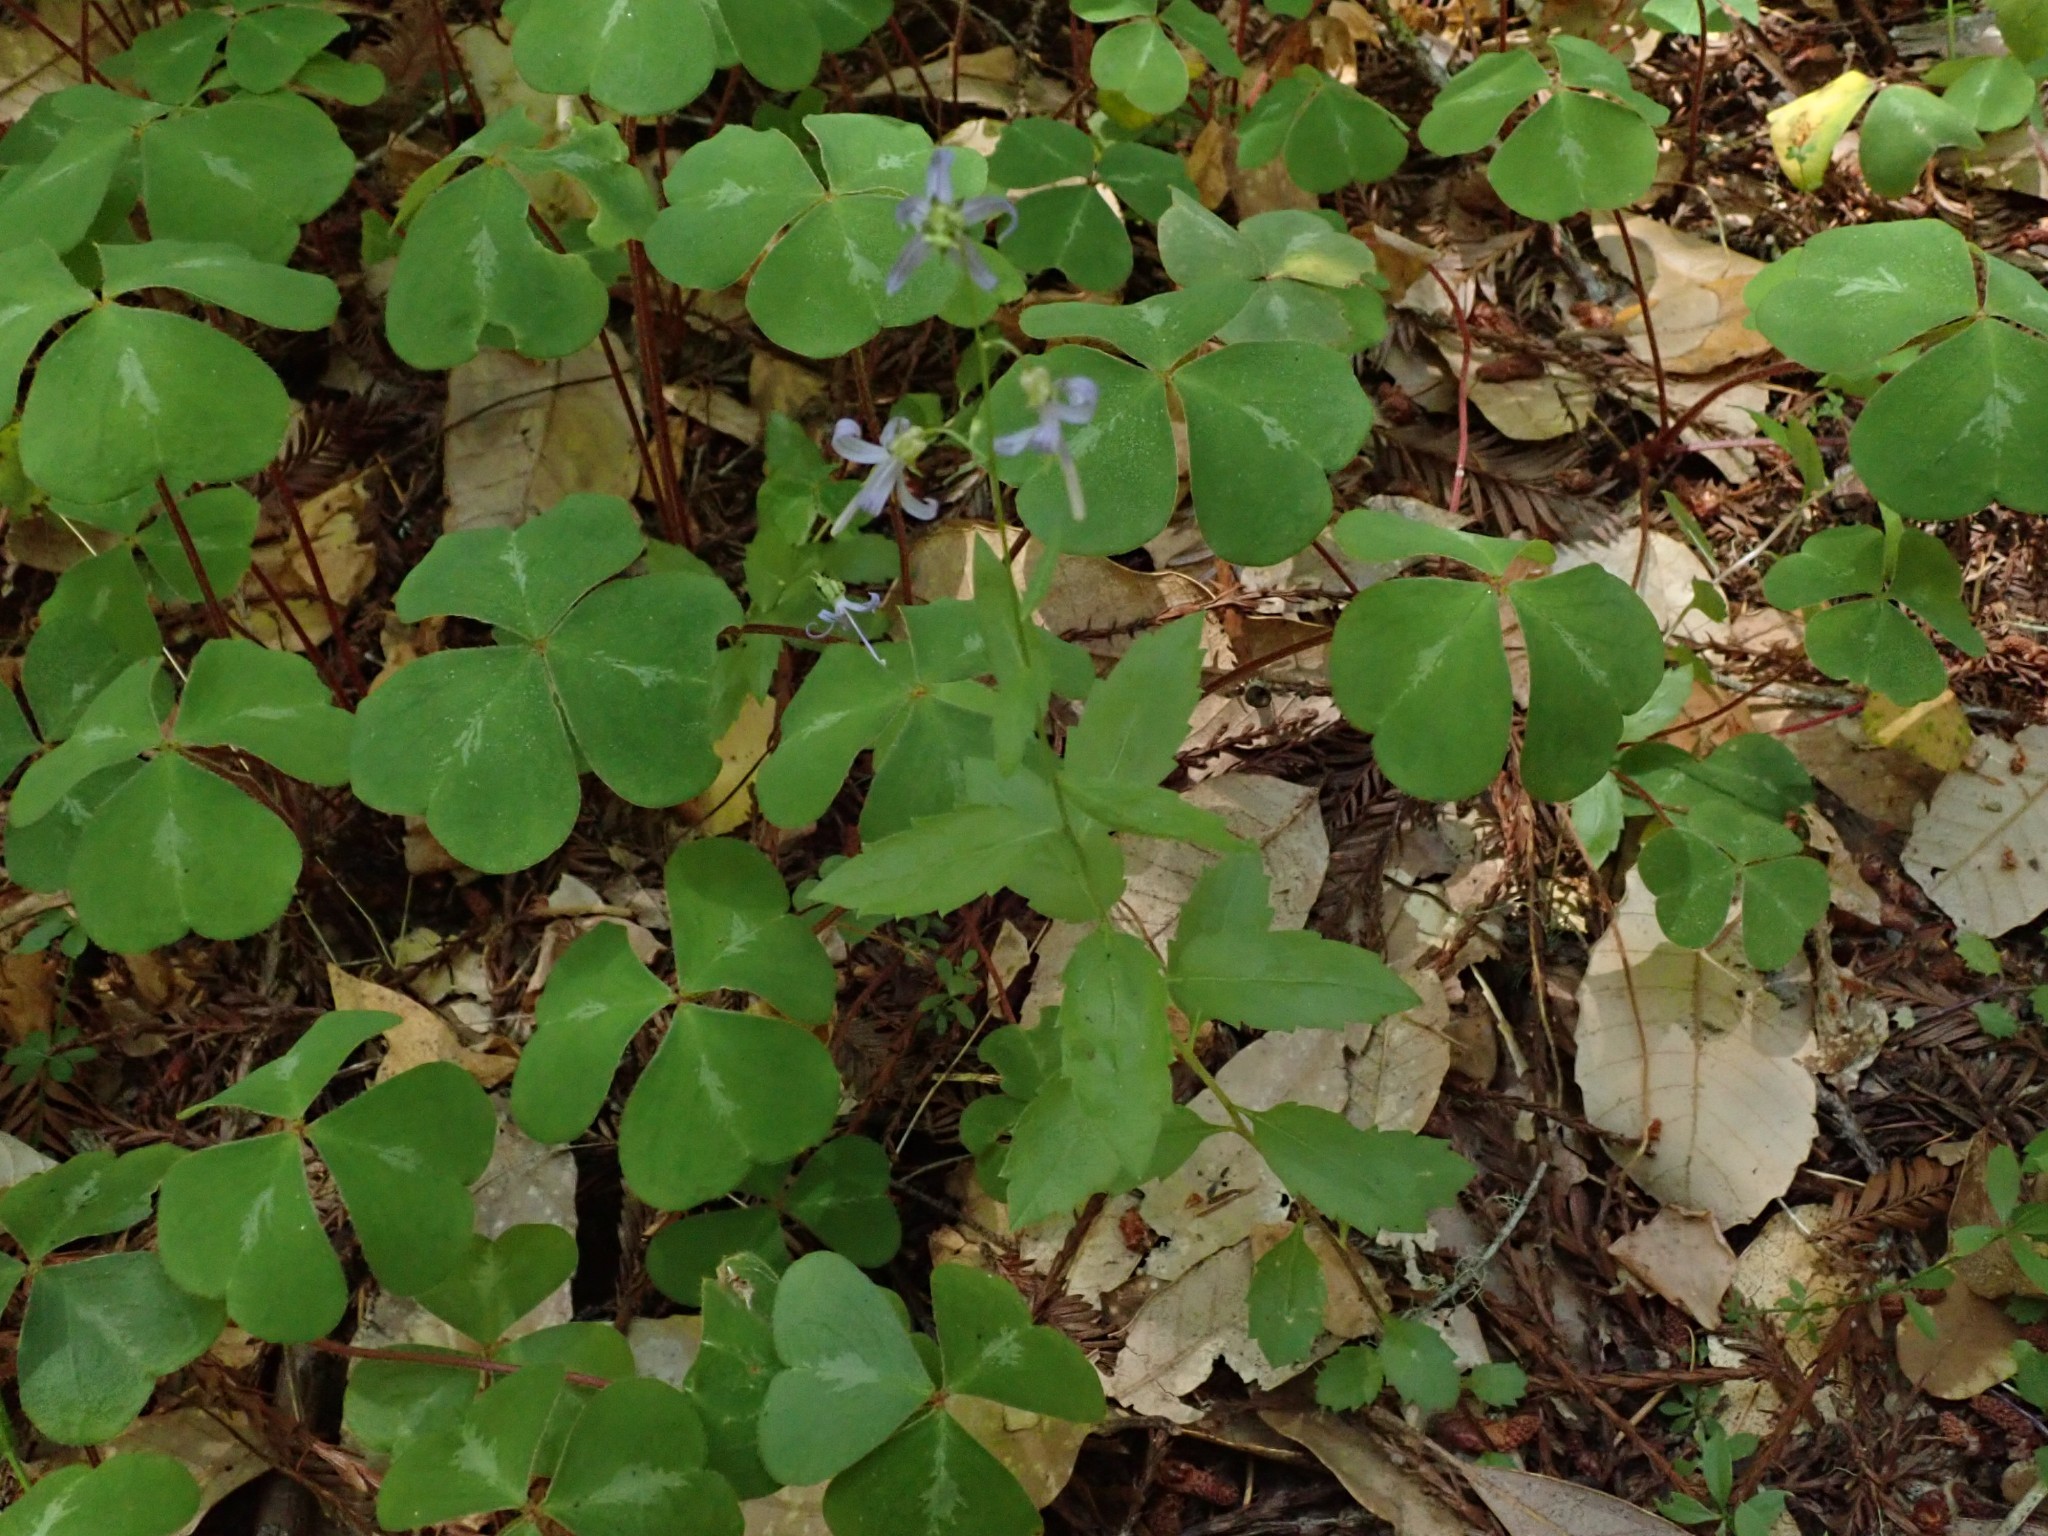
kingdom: Plantae
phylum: Tracheophyta
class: Magnoliopsida
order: Asterales
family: Campanulaceae
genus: Smithiastrum
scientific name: Smithiastrum prenanthoides
